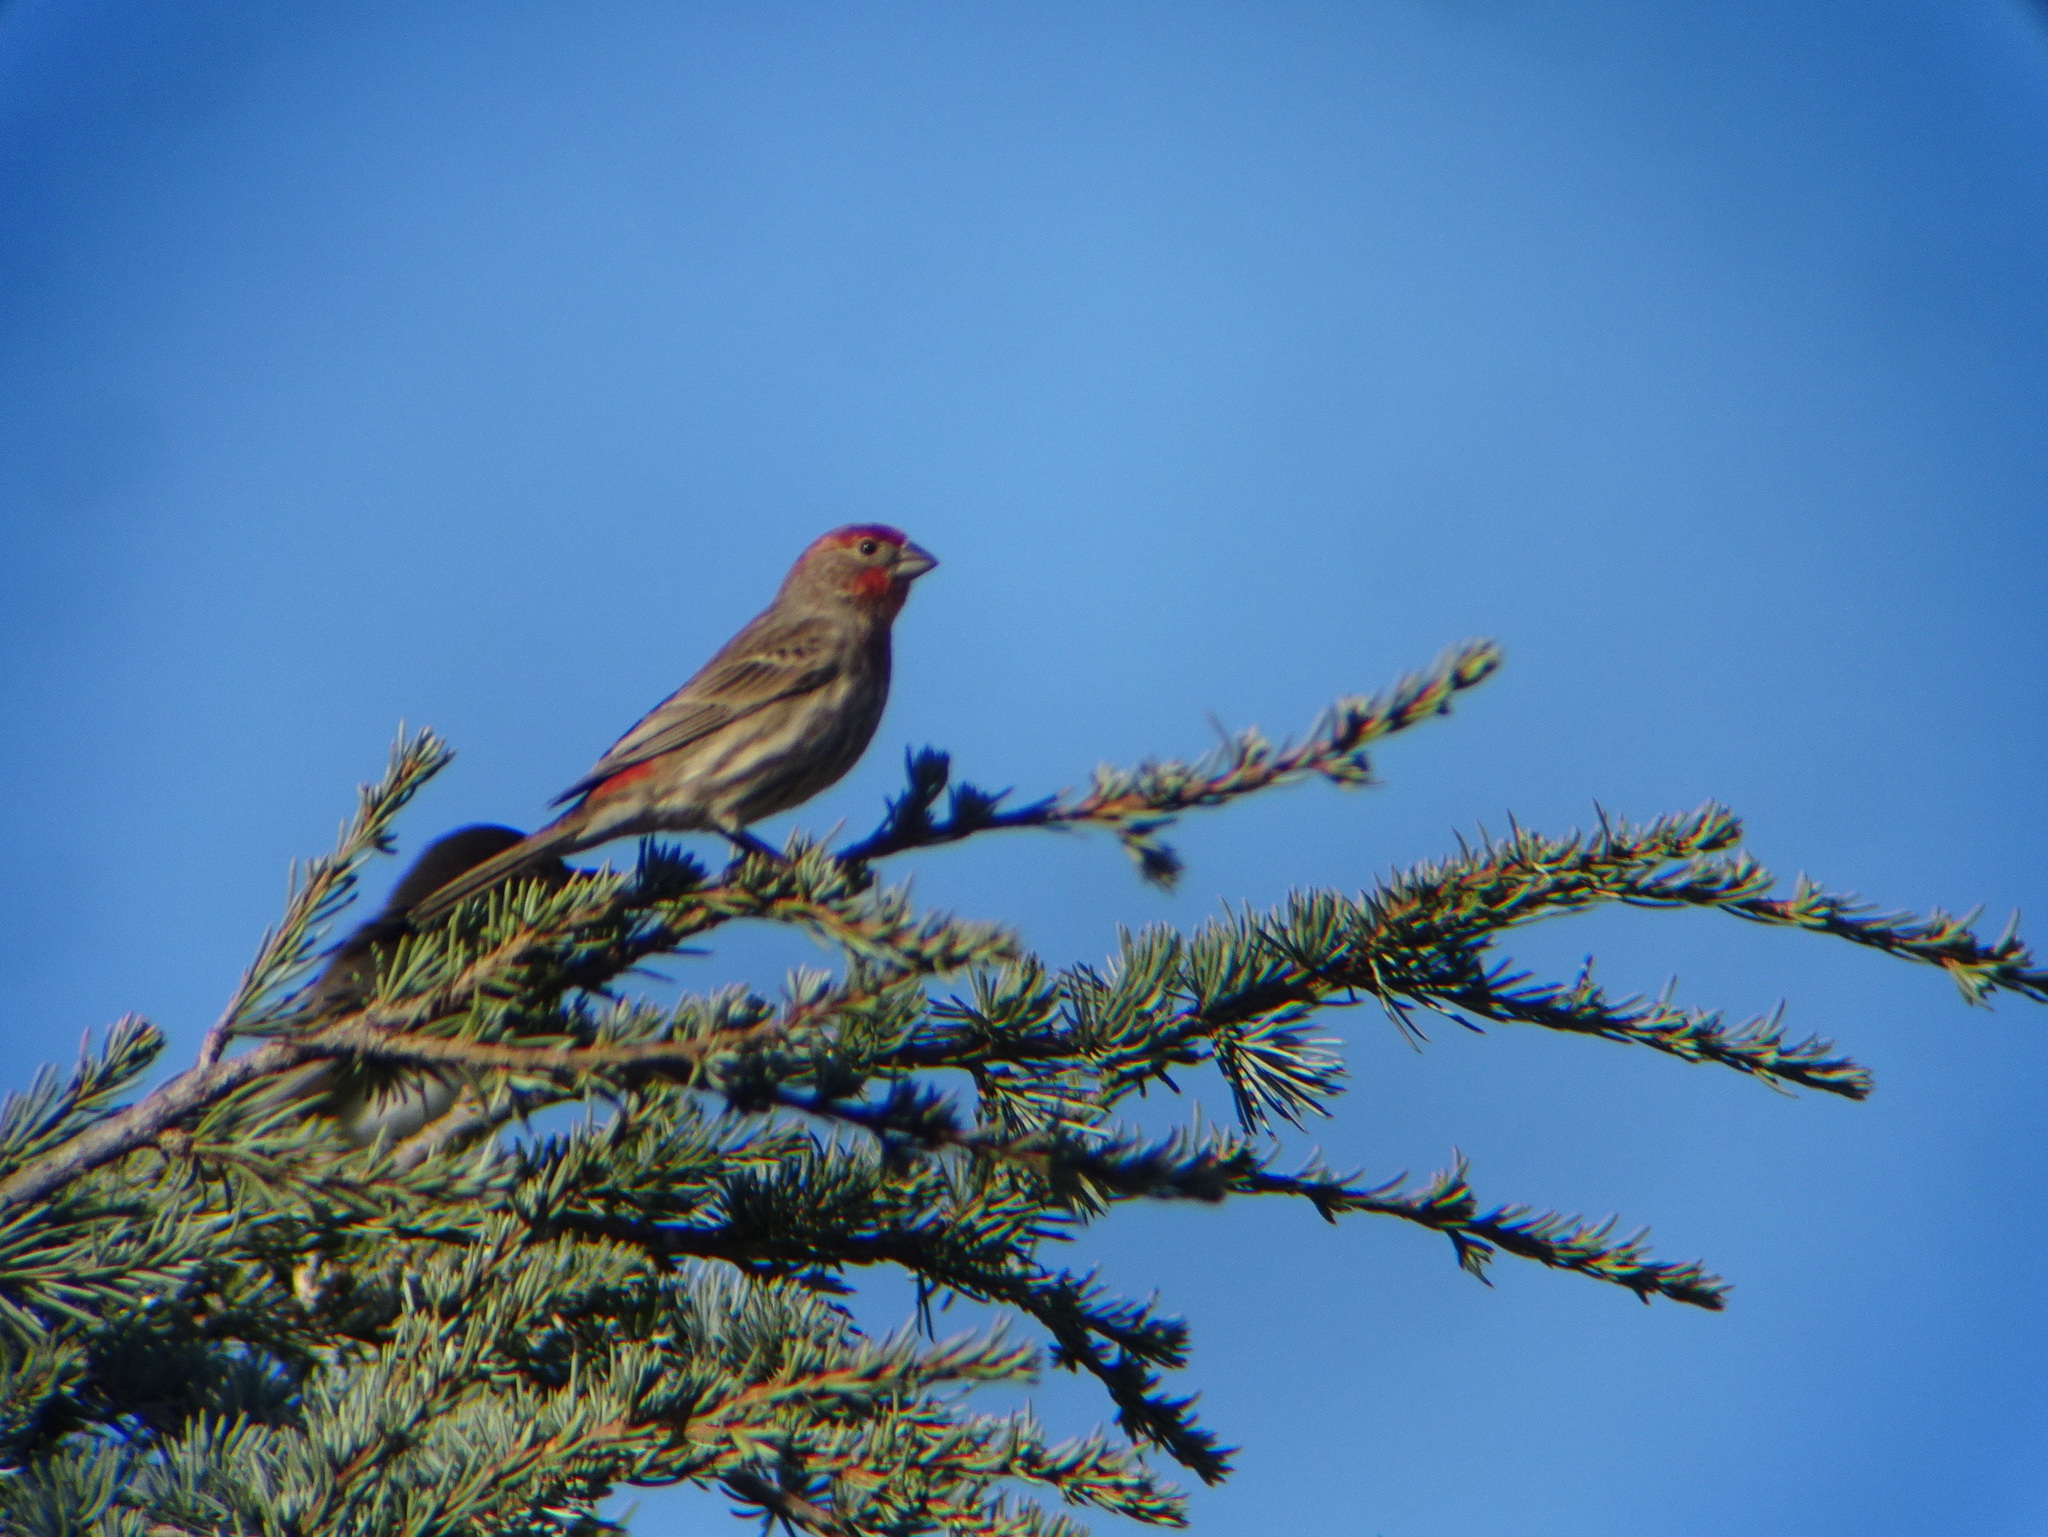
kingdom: Animalia
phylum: Chordata
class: Aves
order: Passeriformes
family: Fringillidae
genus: Haemorhous
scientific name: Haemorhous mexicanus
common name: House finch
